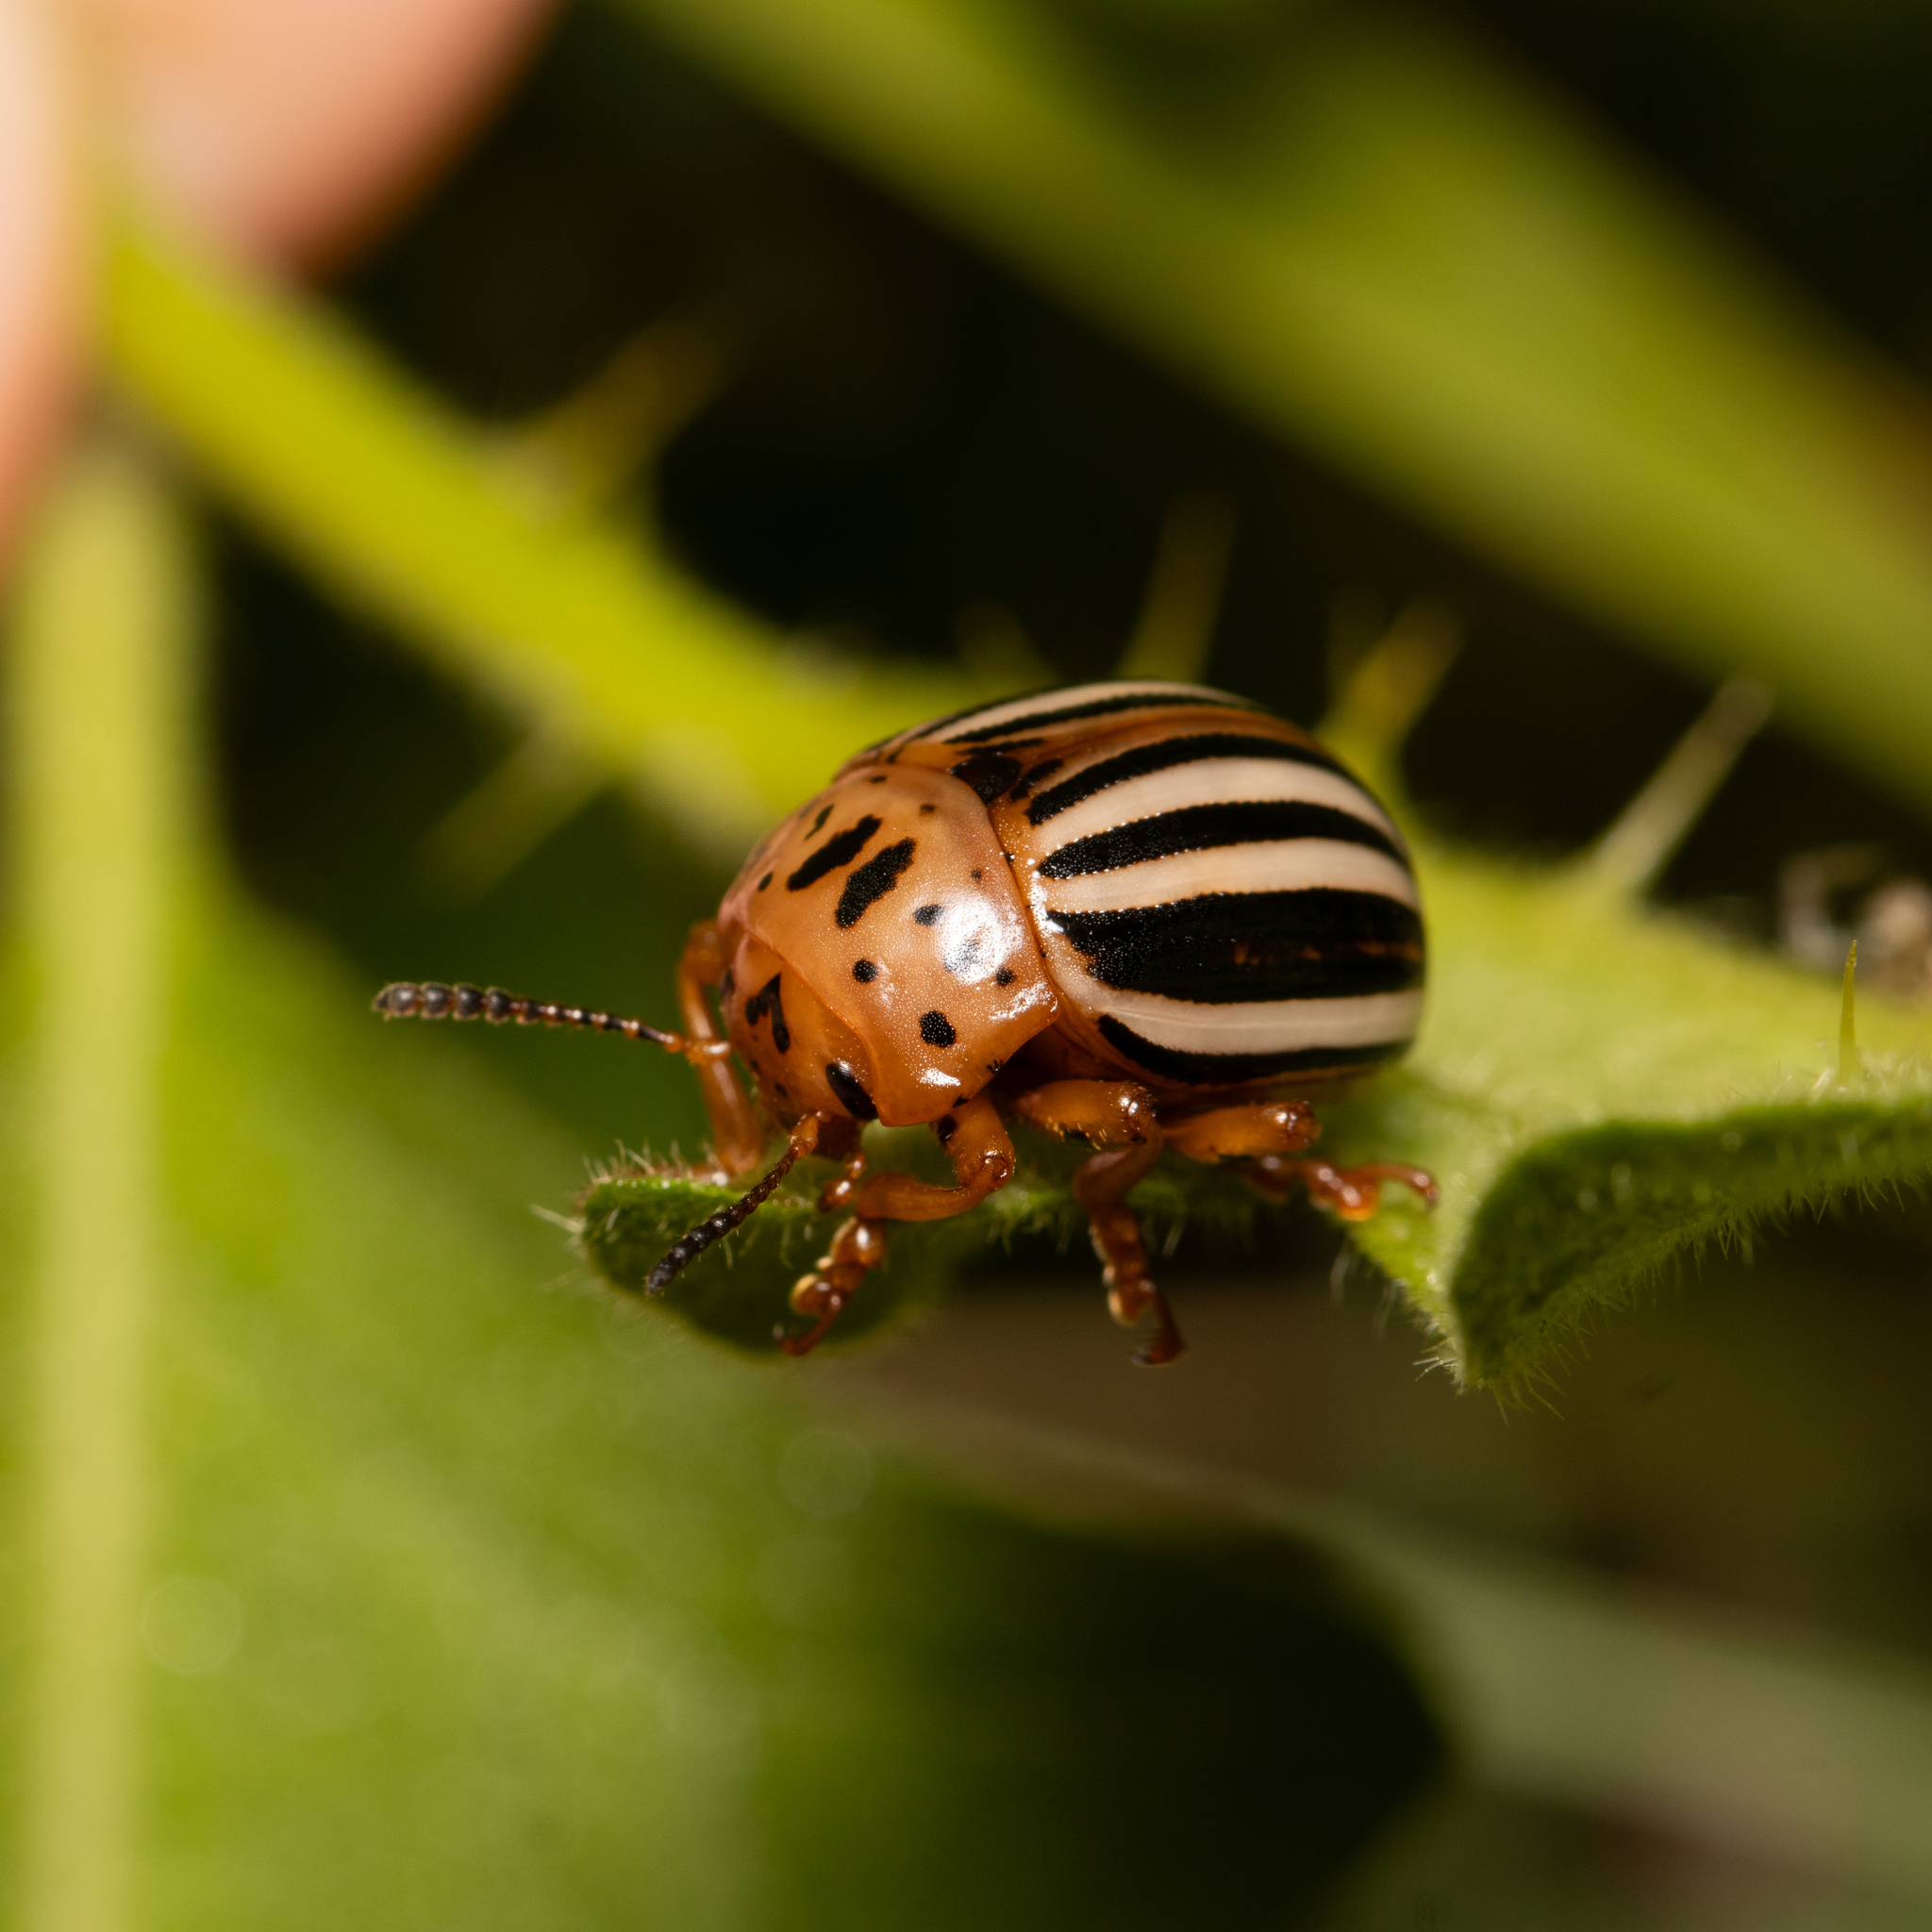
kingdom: Animalia
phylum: Arthropoda
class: Insecta
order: Coleoptera
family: Chrysomelidae
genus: Leptinotarsa
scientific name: Leptinotarsa juncta
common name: False potato beetle
